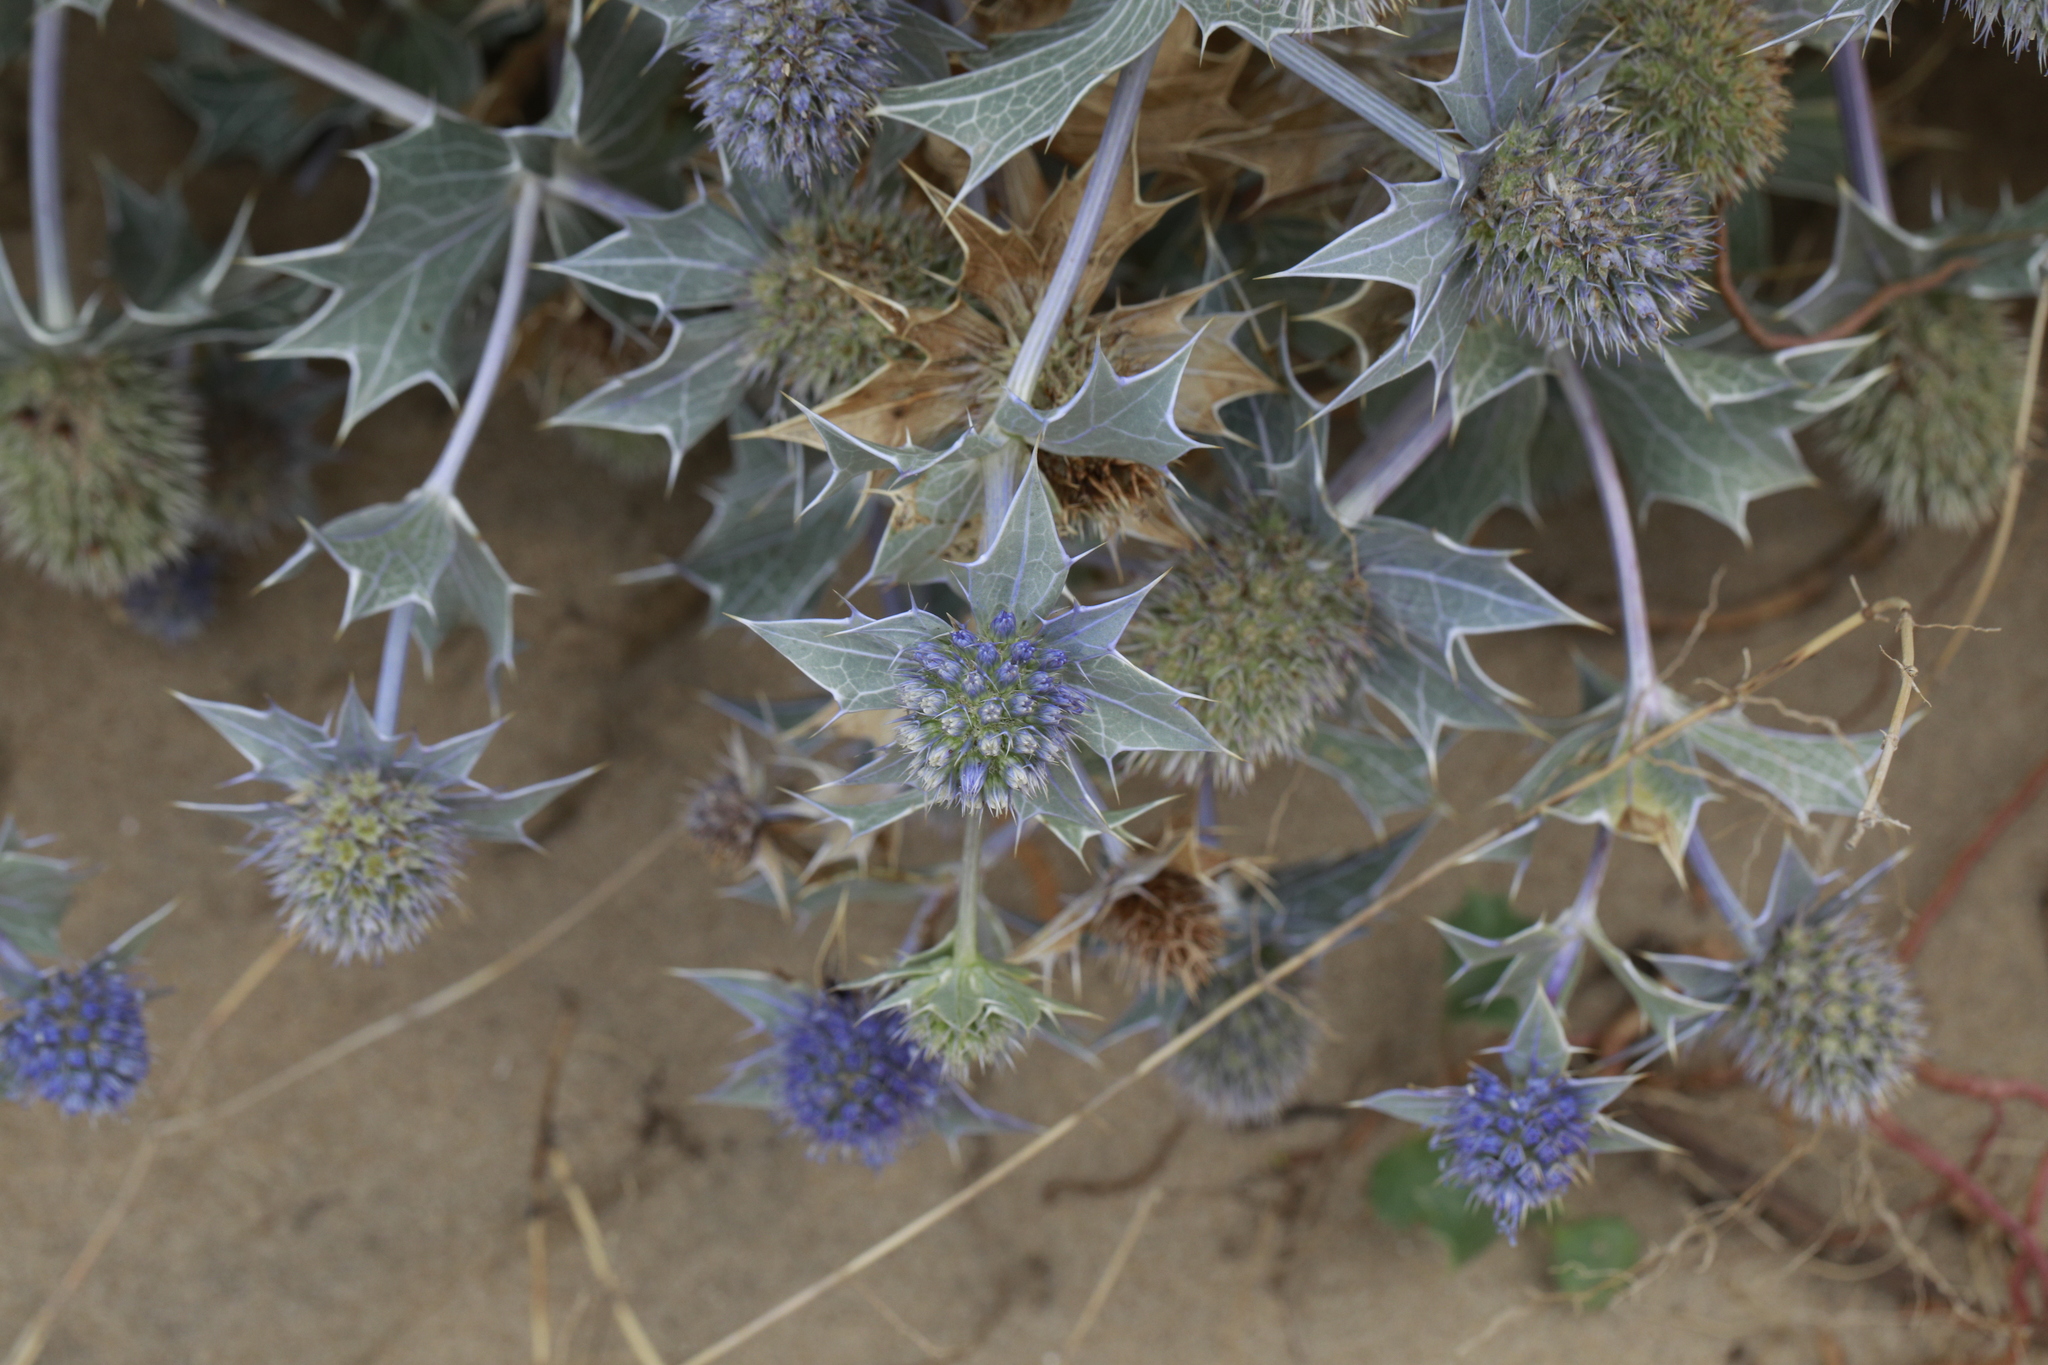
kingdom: Plantae
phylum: Tracheophyta
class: Magnoliopsida
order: Apiales
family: Apiaceae
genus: Eryngium
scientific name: Eryngium maritimum
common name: Sea-holly
